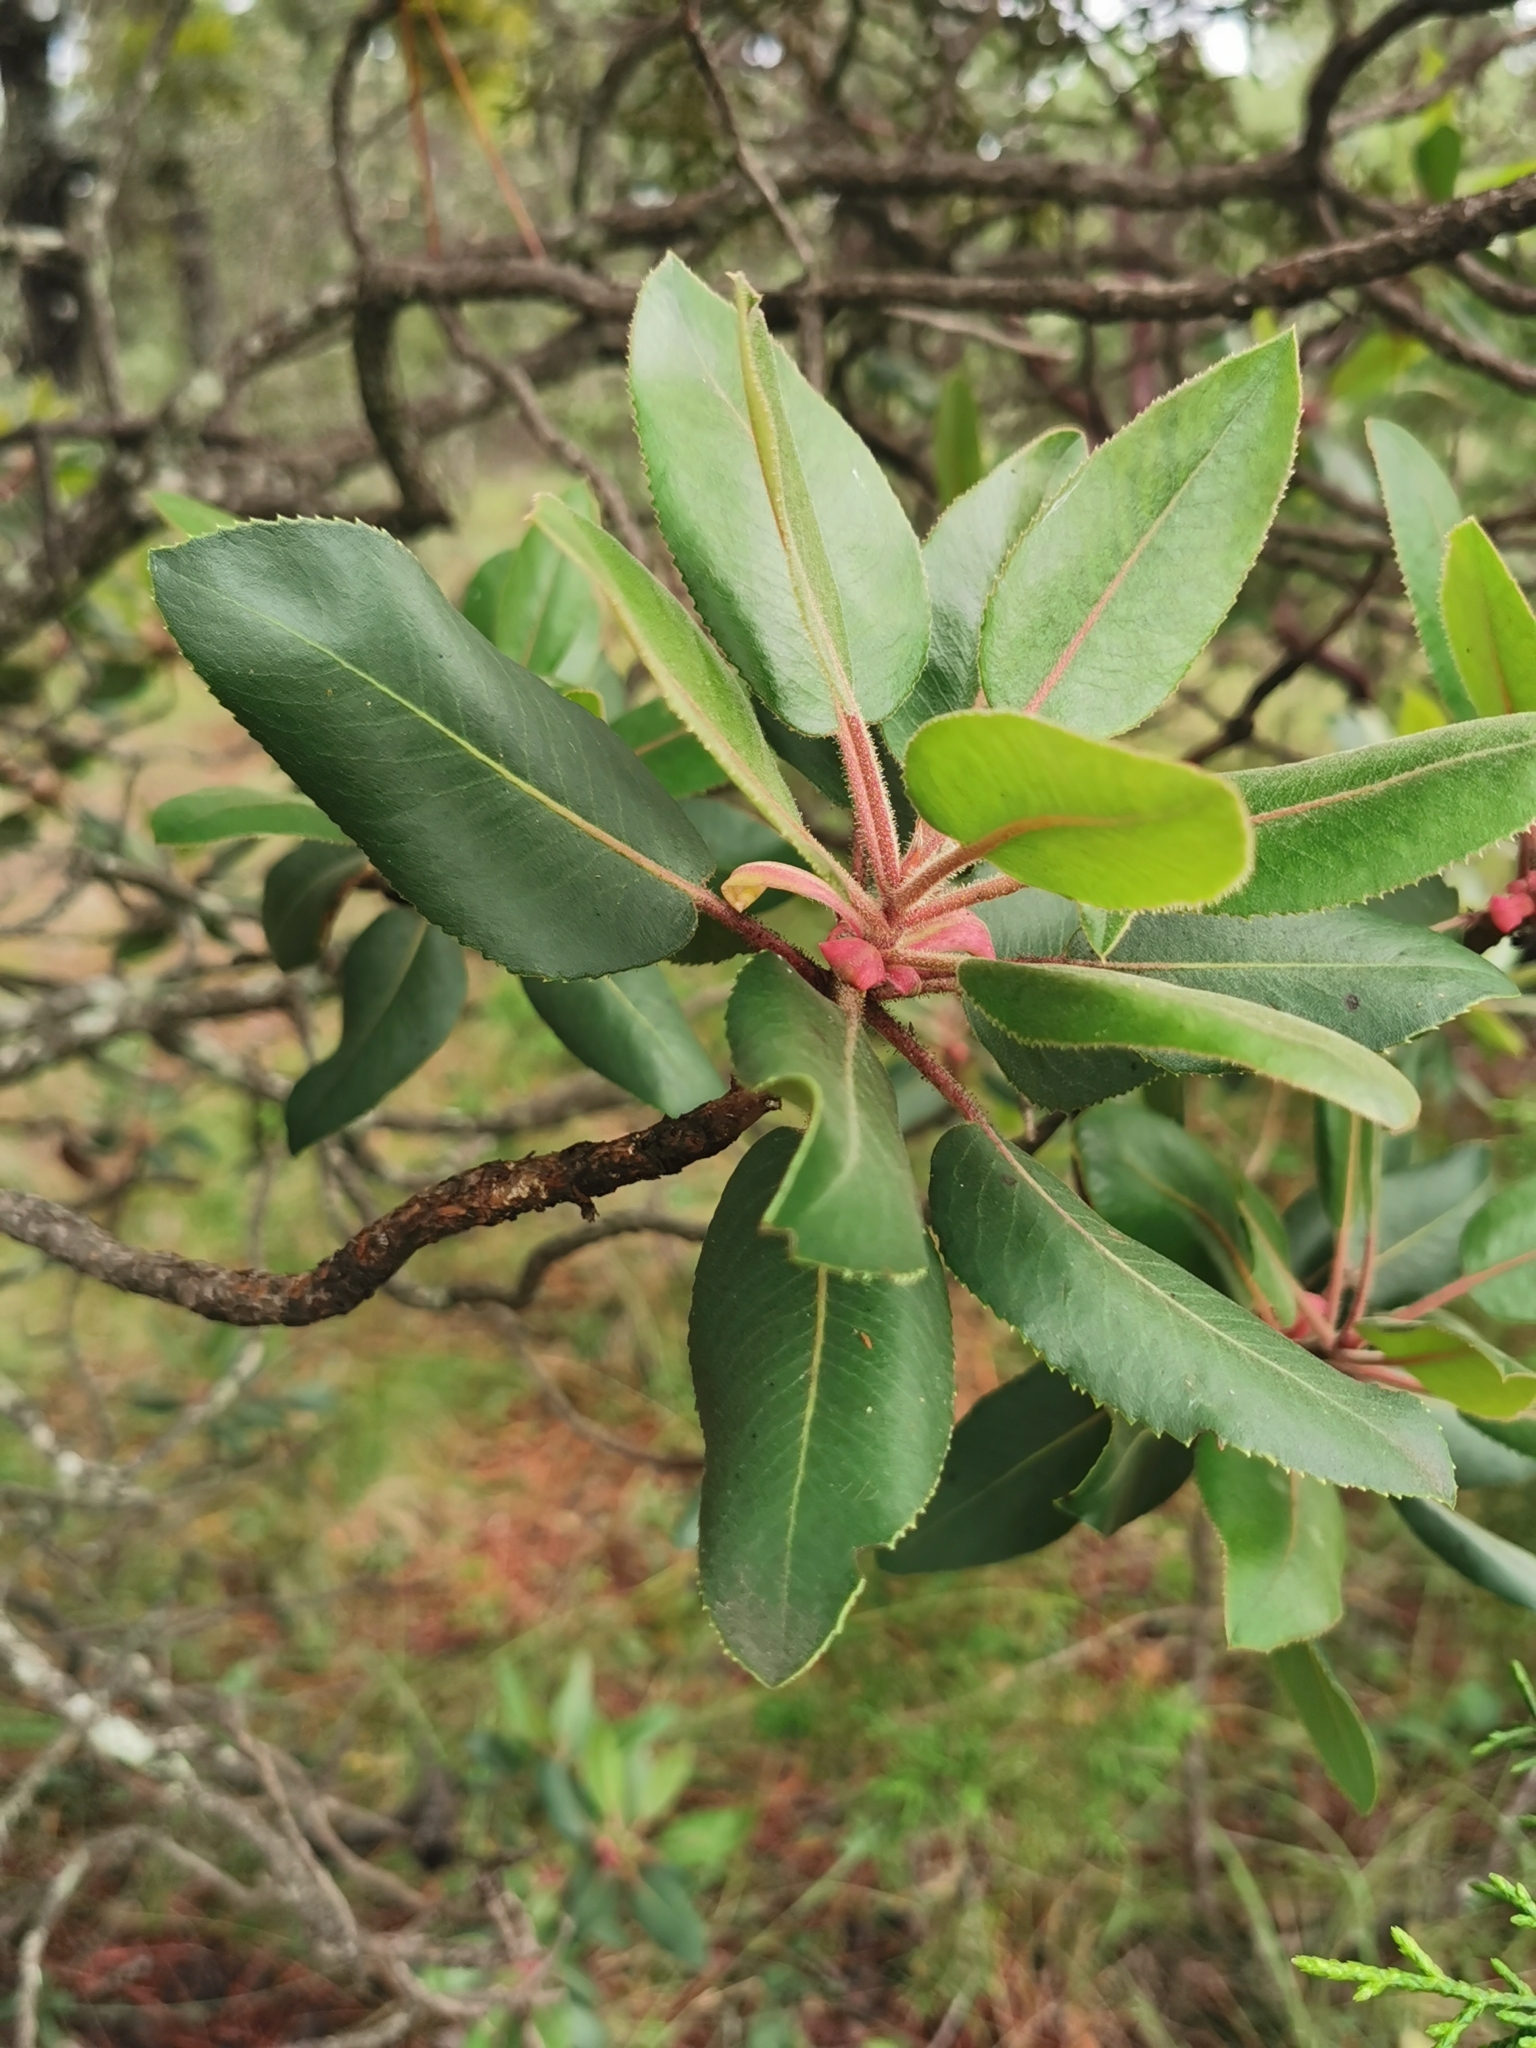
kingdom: Plantae
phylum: Tracheophyta
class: Magnoliopsida
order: Ericales
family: Ericaceae
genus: Arbutus
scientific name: Arbutus tessellata
